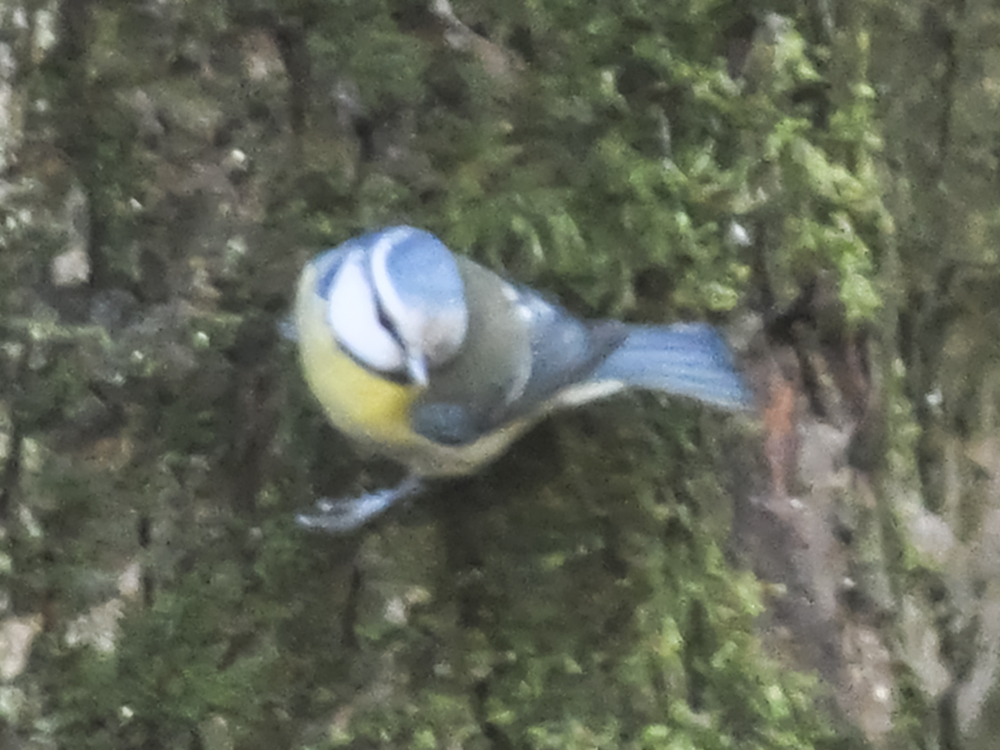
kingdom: Animalia
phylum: Chordata
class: Aves
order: Passeriformes
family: Paridae
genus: Cyanistes
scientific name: Cyanistes caeruleus
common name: Eurasian blue tit
